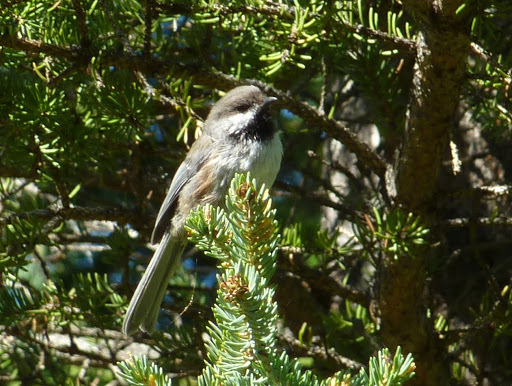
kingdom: Animalia
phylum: Chordata
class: Aves
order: Passeriformes
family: Paridae
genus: Poecile
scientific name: Poecile hudsonicus
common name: Boreal chickadee
